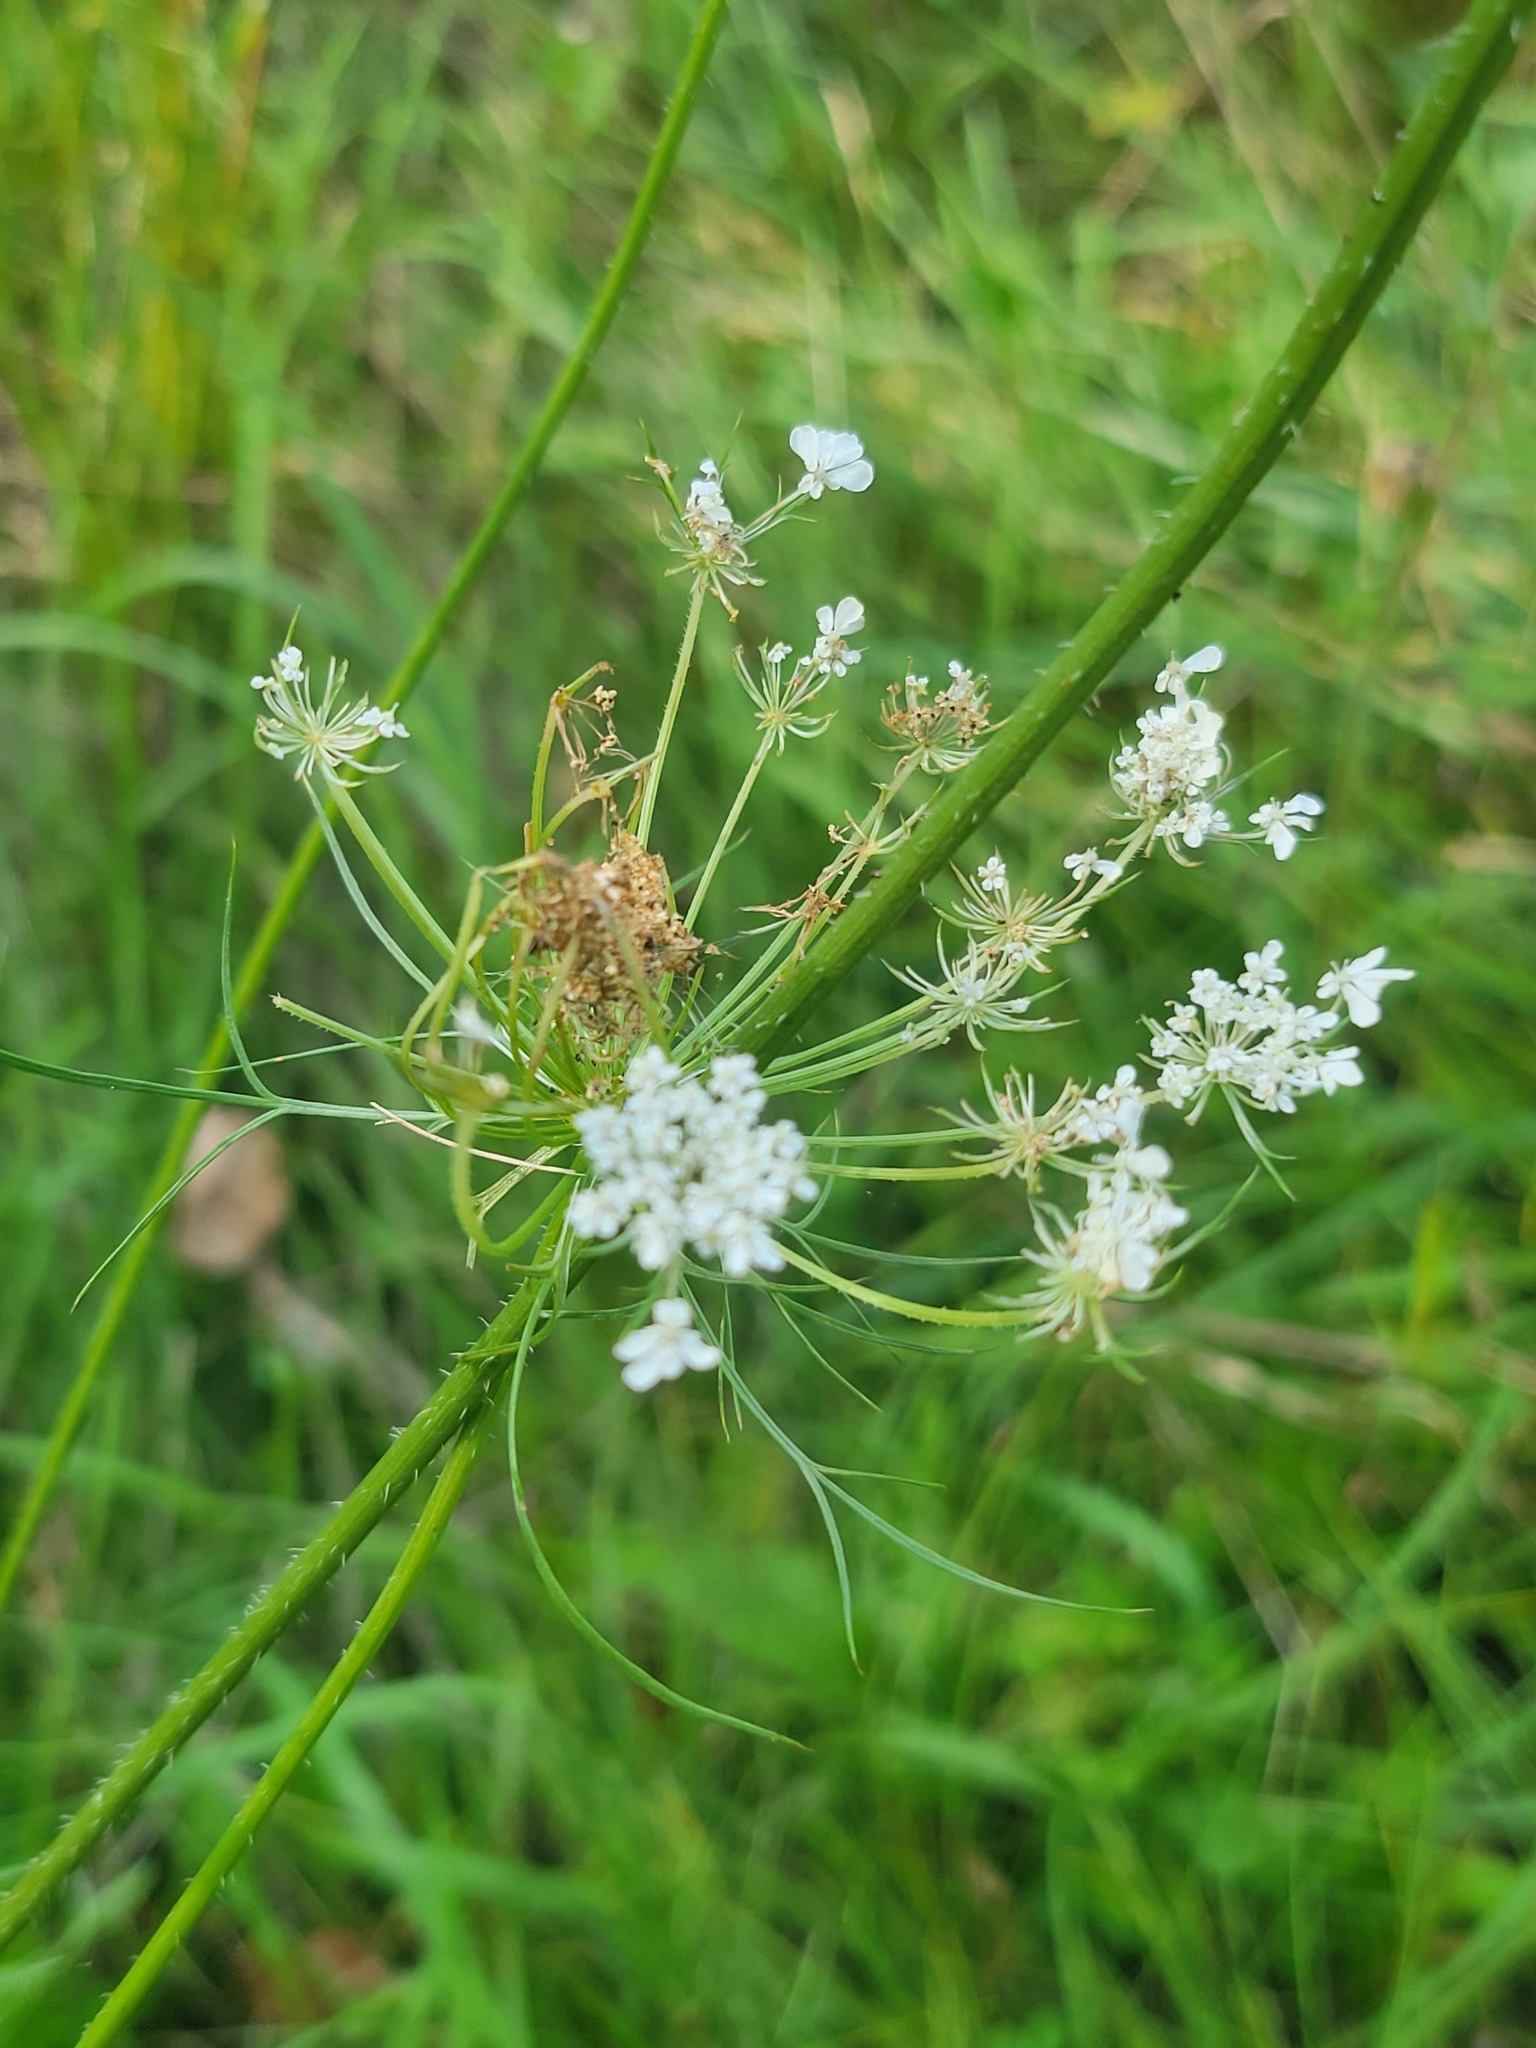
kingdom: Plantae
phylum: Tracheophyta
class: Magnoliopsida
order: Apiales
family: Apiaceae
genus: Daucus
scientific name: Daucus carota
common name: Wild carrot
